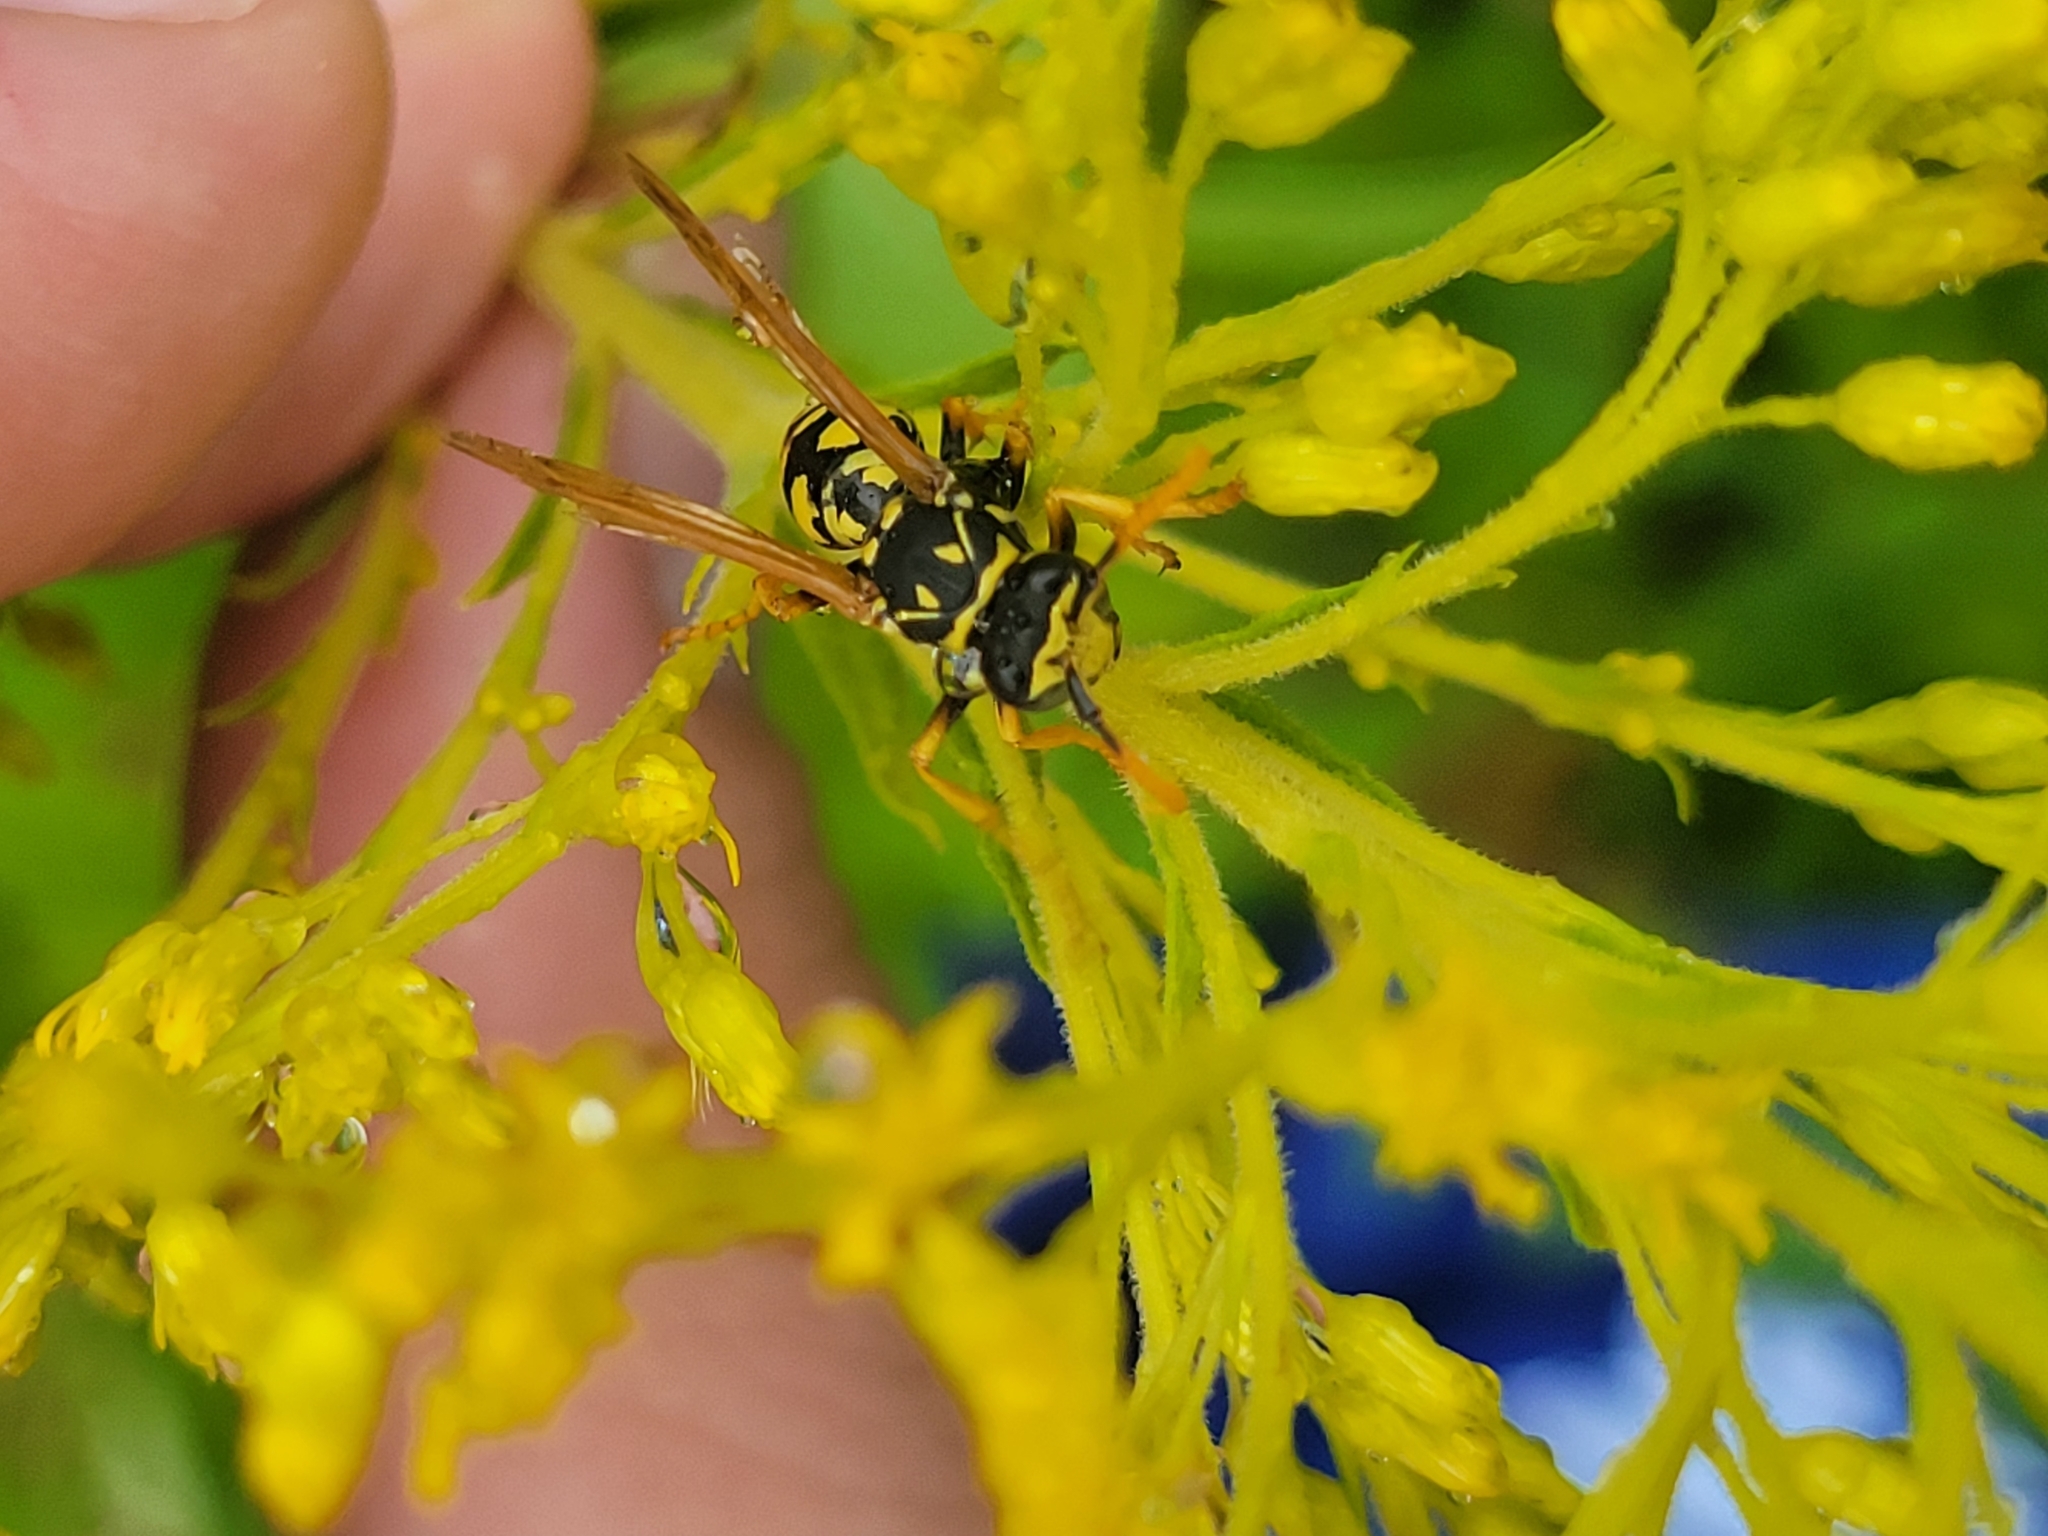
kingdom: Animalia
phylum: Arthropoda
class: Insecta
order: Hymenoptera
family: Eumenidae
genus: Polistes
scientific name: Polistes dominula
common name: Paper wasp
